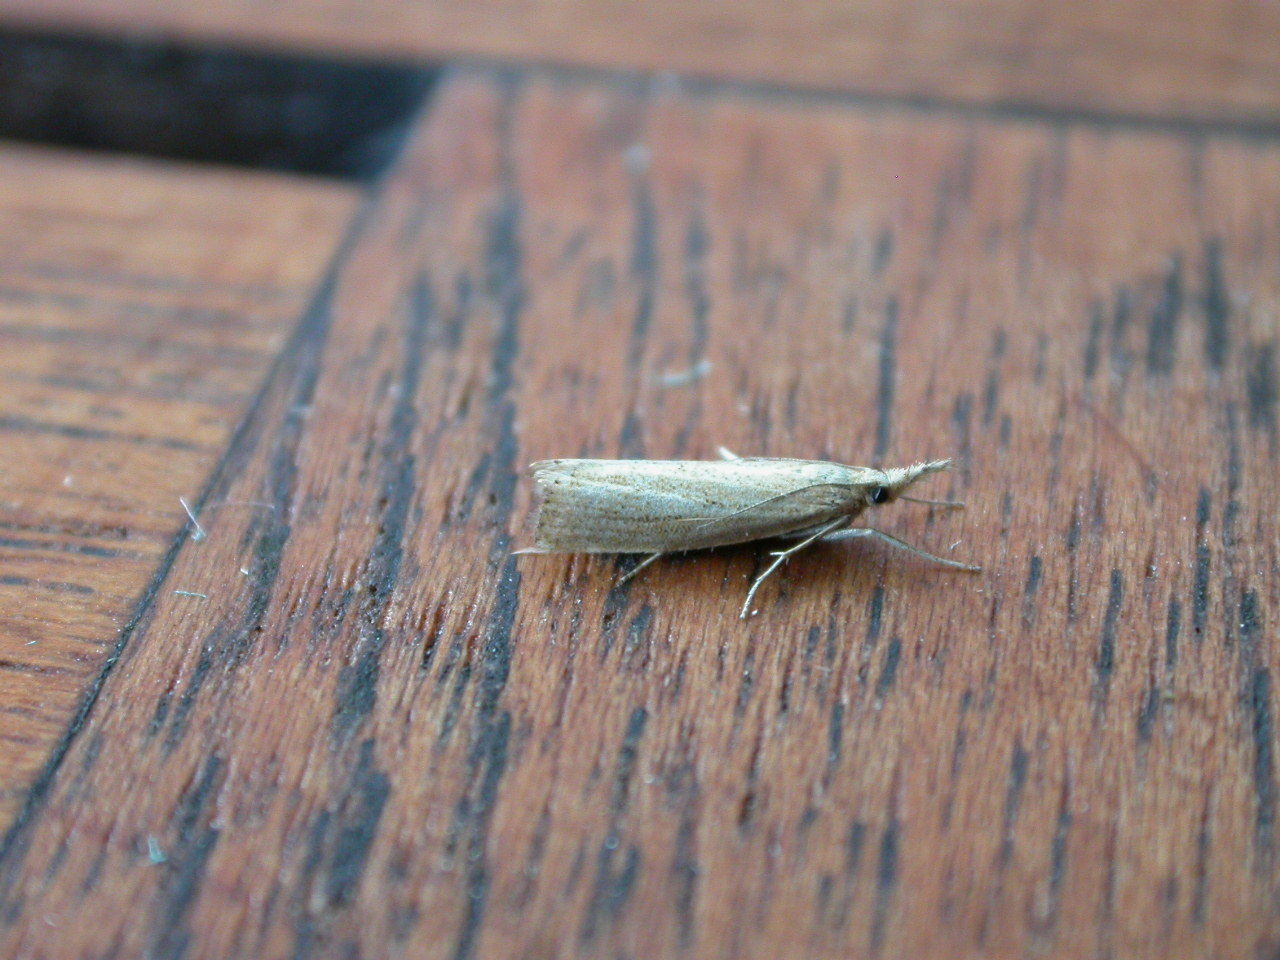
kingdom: Animalia
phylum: Arthropoda
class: Insecta
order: Lepidoptera
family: Crambidae
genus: Agriphila
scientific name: Agriphila straminella
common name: Straw grass-veneer
